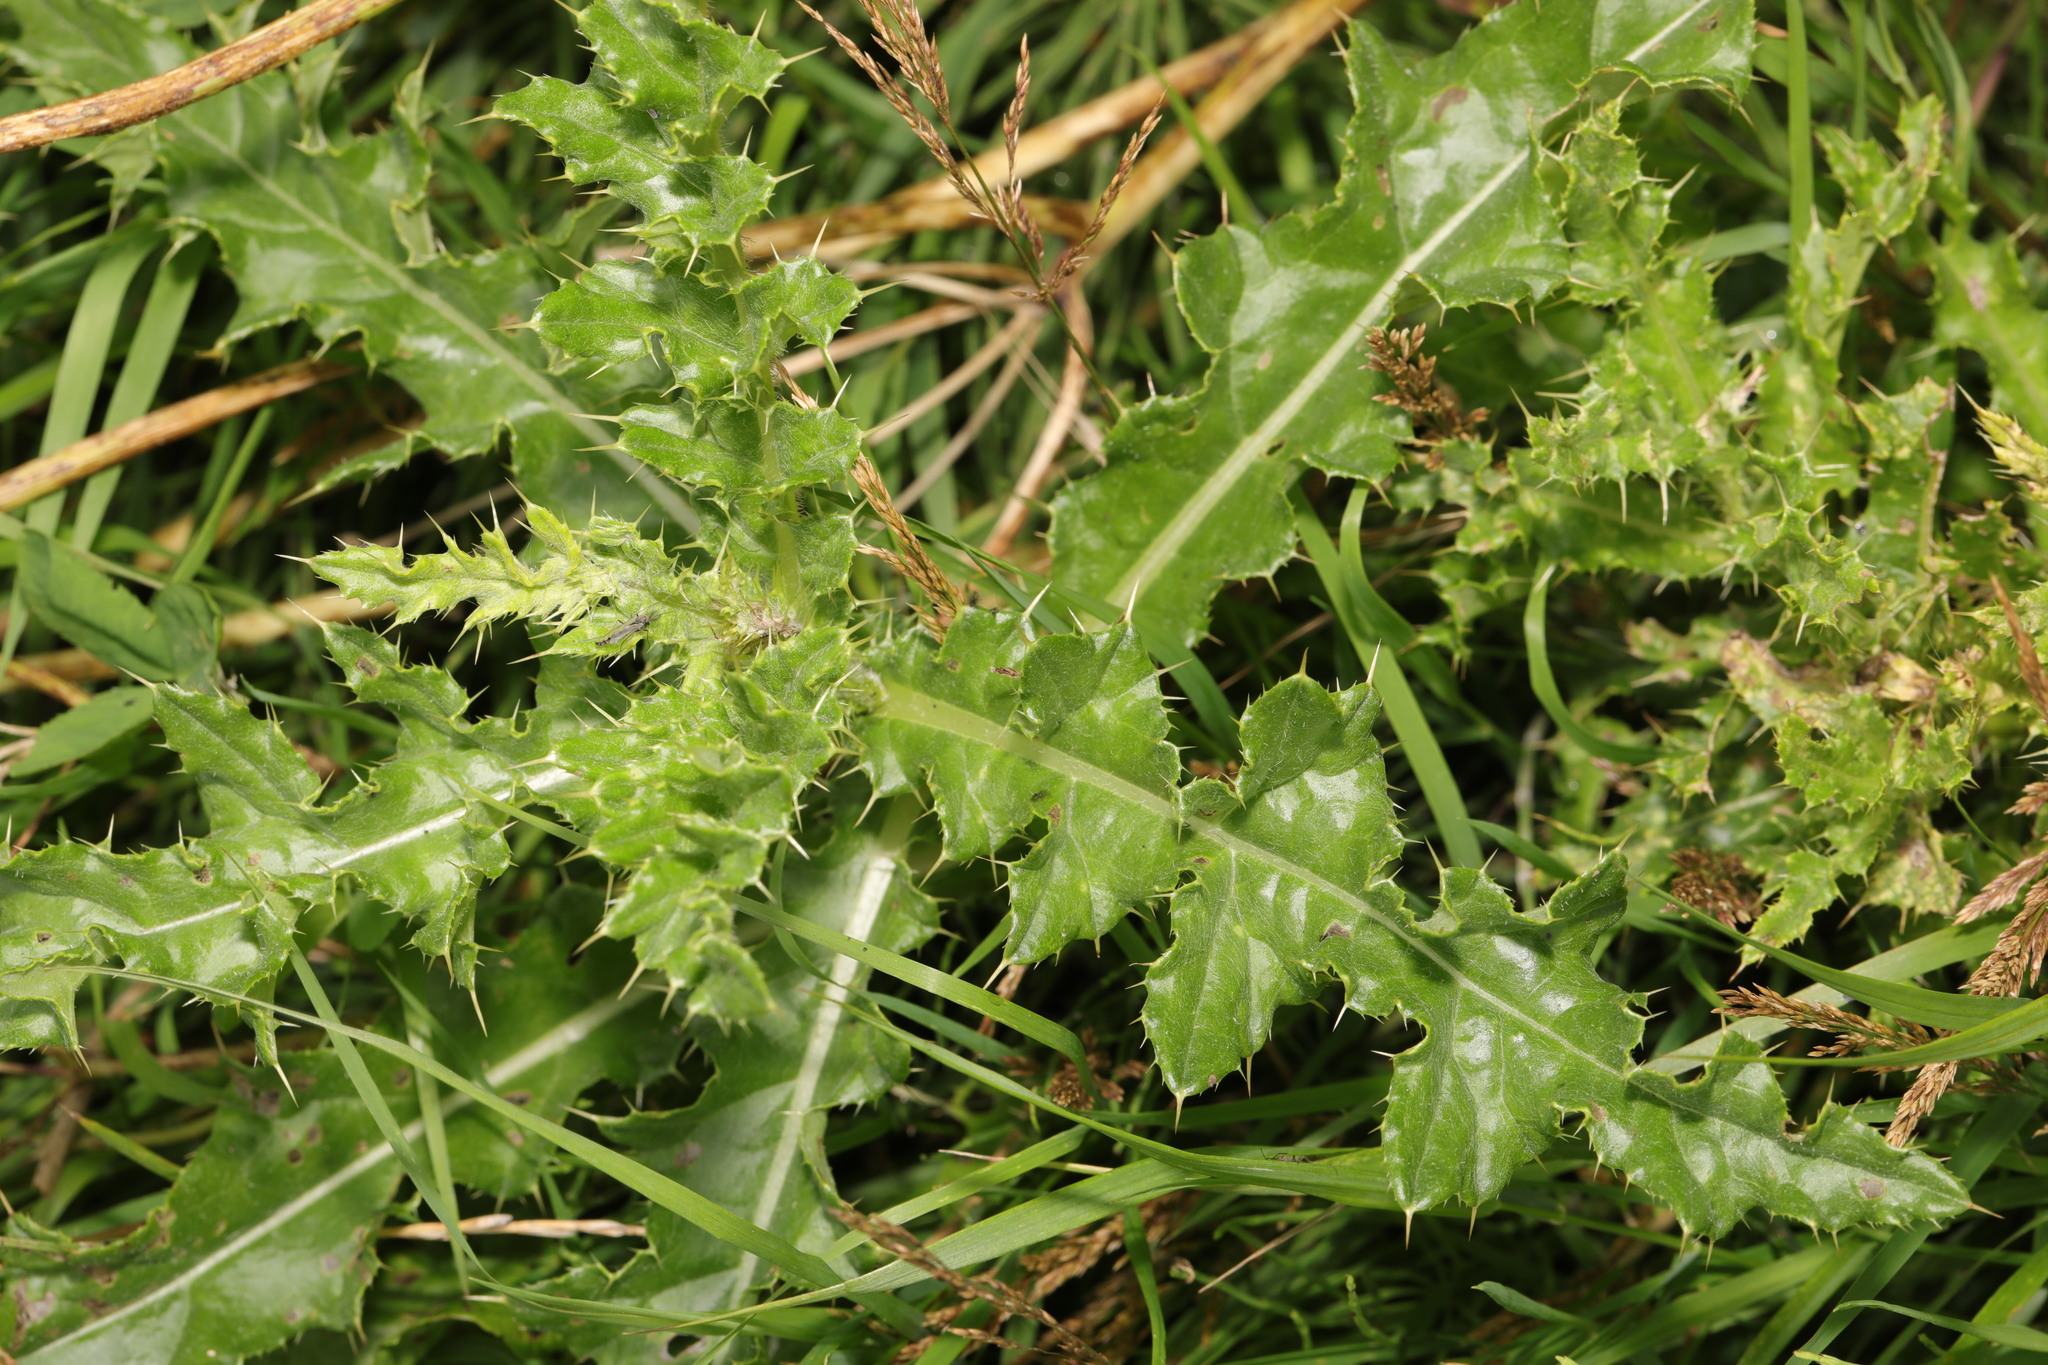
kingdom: Plantae
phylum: Tracheophyta
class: Magnoliopsida
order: Asterales
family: Asteraceae
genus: Cirsium
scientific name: Cirsium arvense
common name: Creeping thistle
